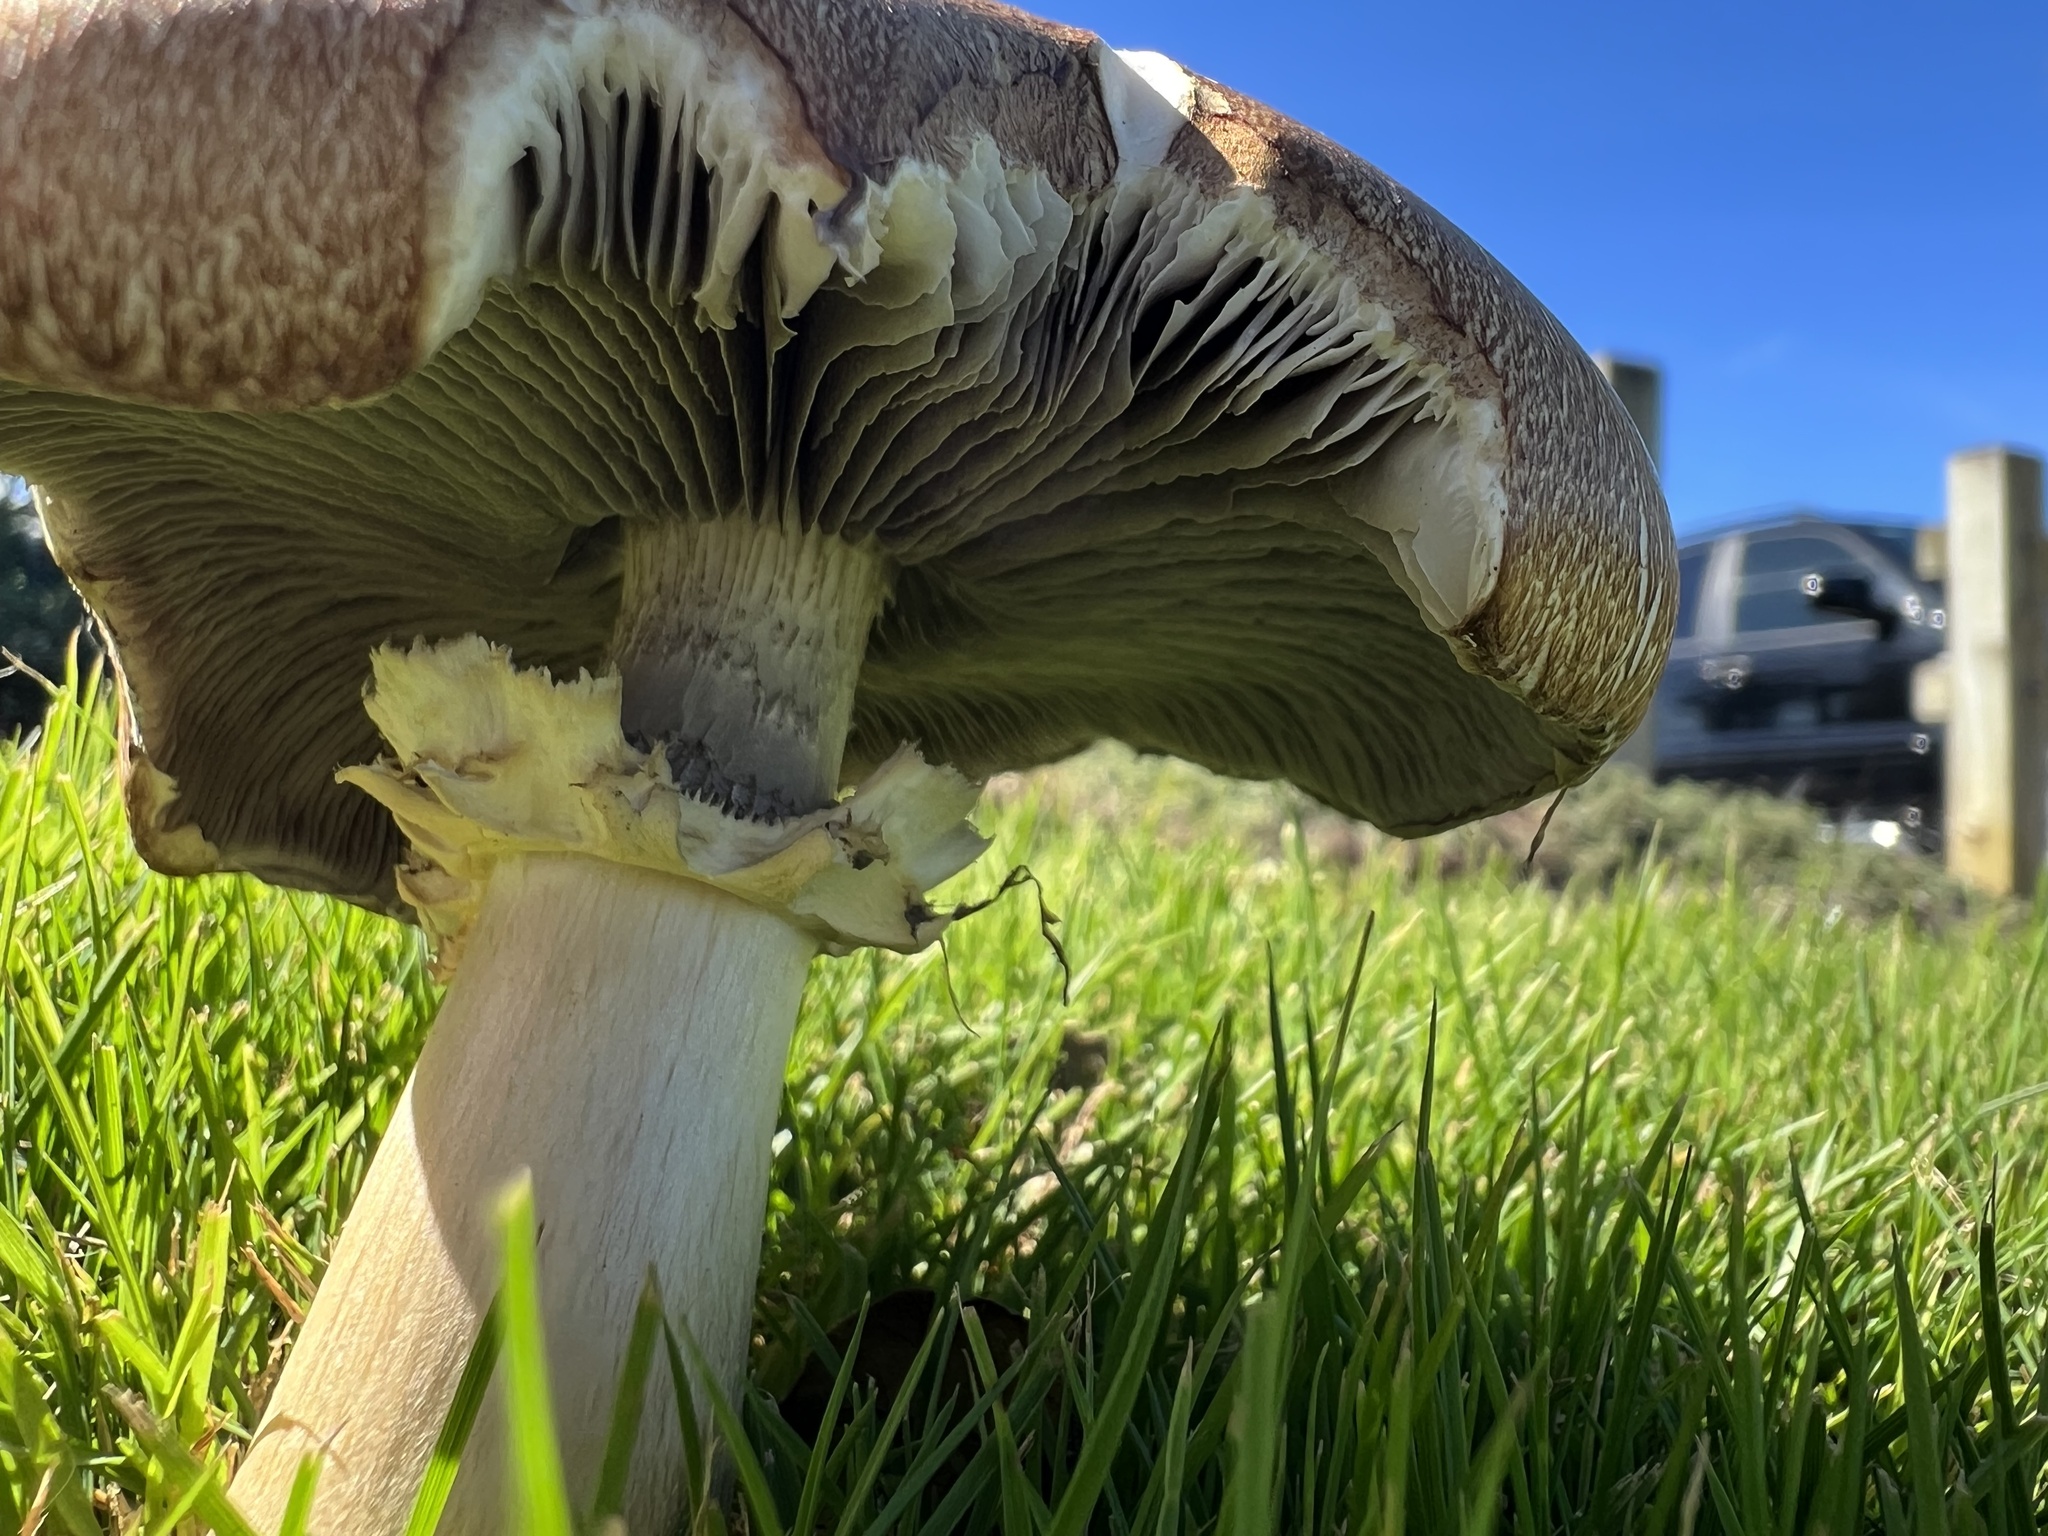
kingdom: Fungi
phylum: Basidiomycota
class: Agaricomycetes
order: Agaricales
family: Strophariaceae
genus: Stropharia
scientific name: Stropharia rugosoannulata
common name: Wine roundhead
